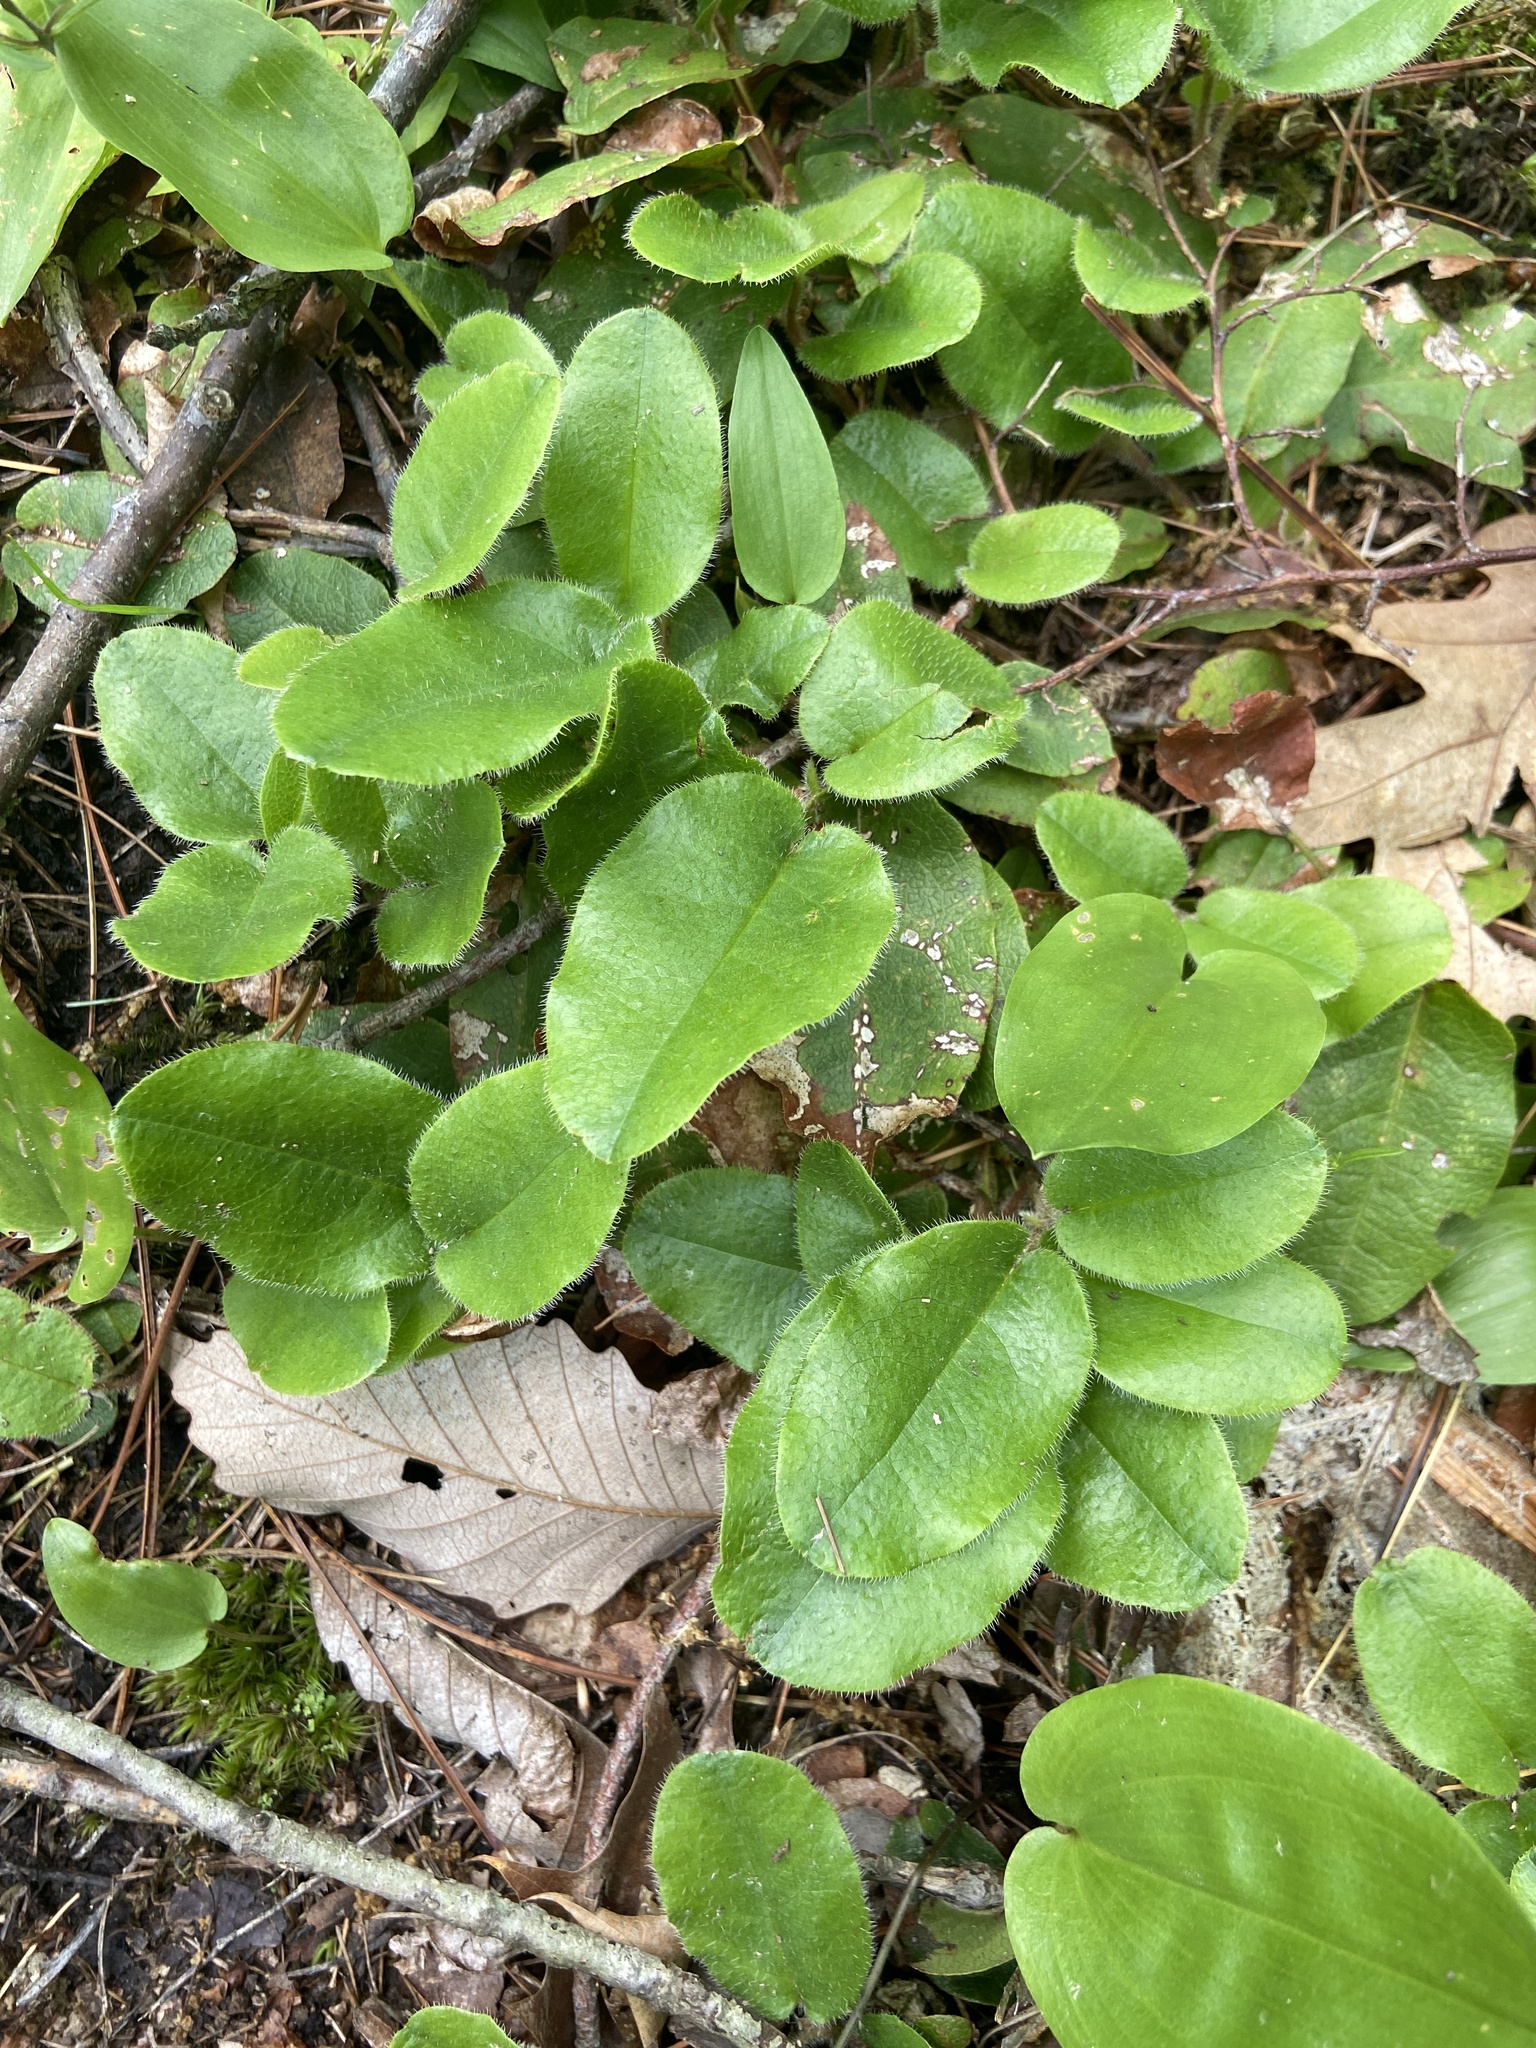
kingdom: Plantae
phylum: Tracheophyta
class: Magnoliopsida
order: Ericales
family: Ericaceae
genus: Epigaea
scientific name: Epigaea repens
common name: Gravelroot
